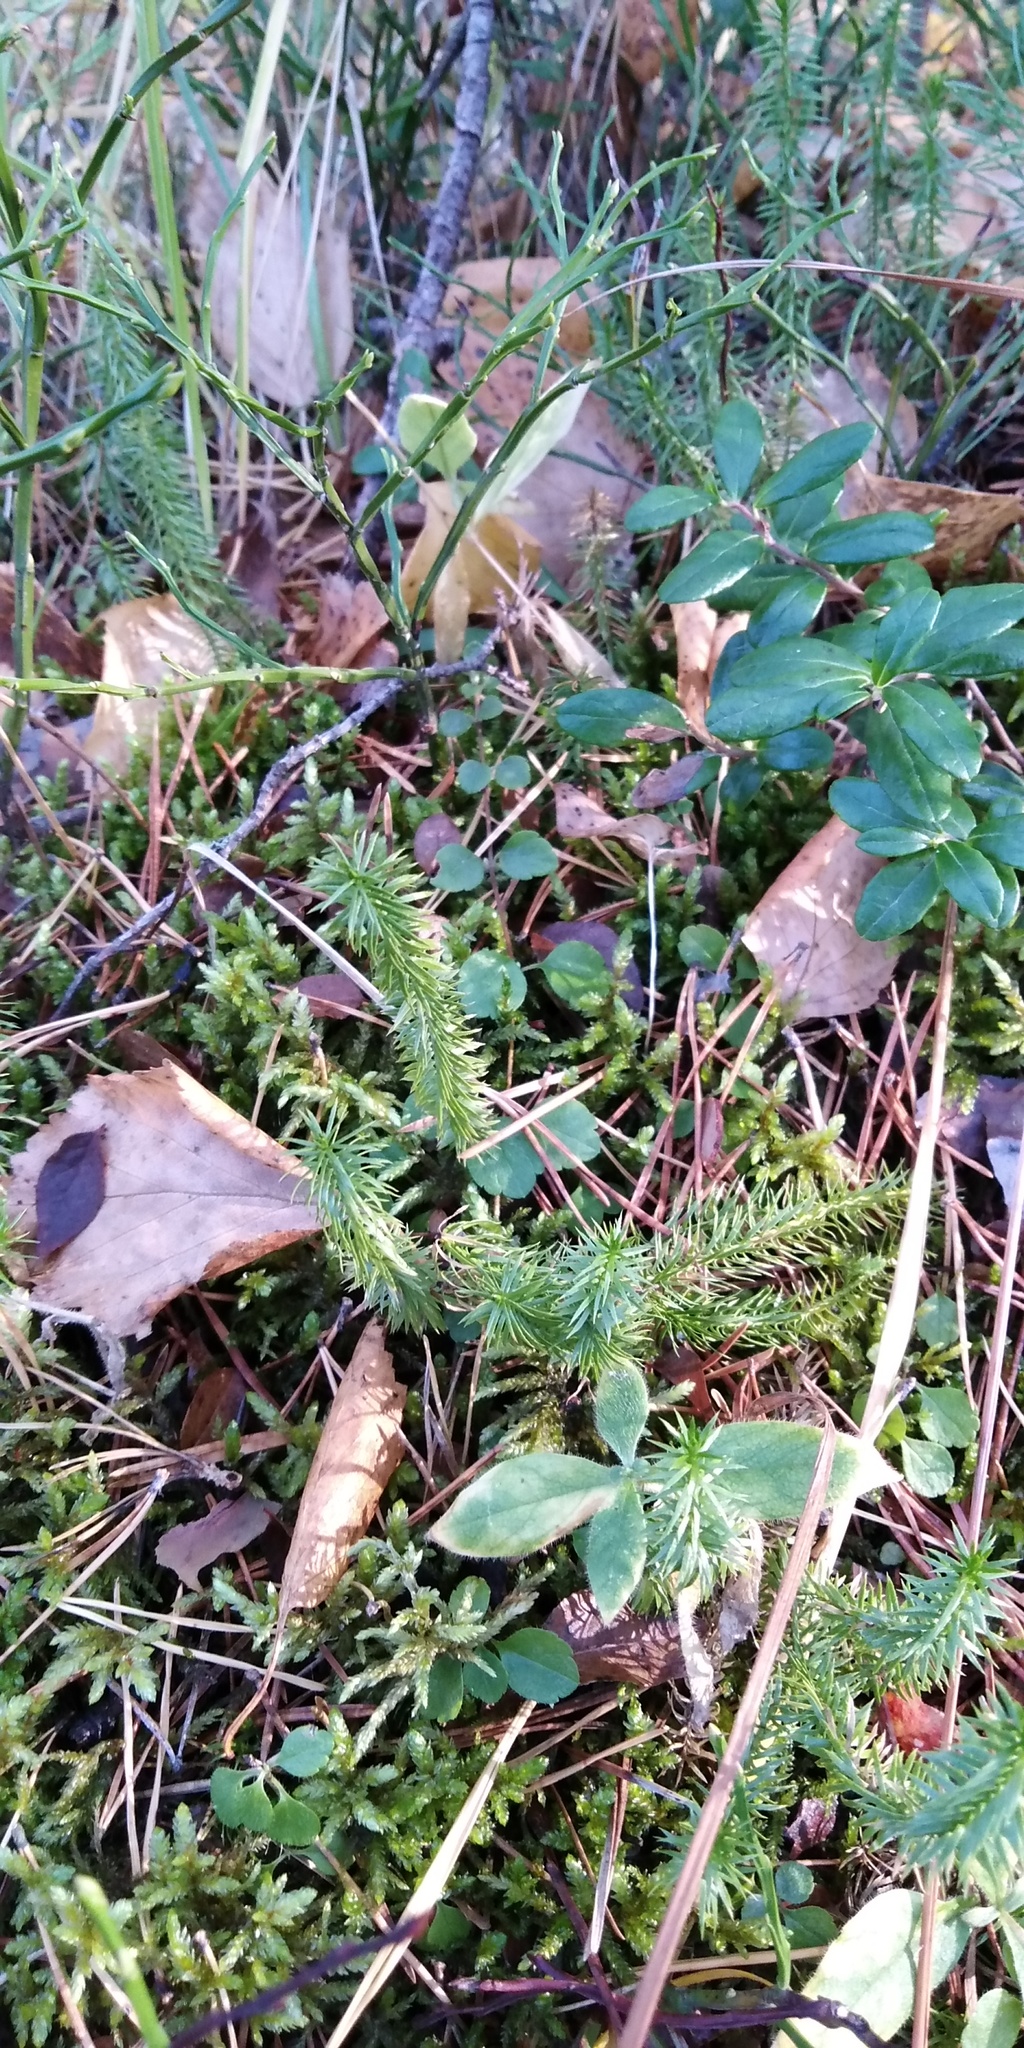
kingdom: Plantae
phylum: Tracheophyta
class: Lycopodiopsida
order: Lycopodiales
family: Lycopodiaceae
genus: Spinulum
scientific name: Spinulum annotinum
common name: Interrupted club-moss
